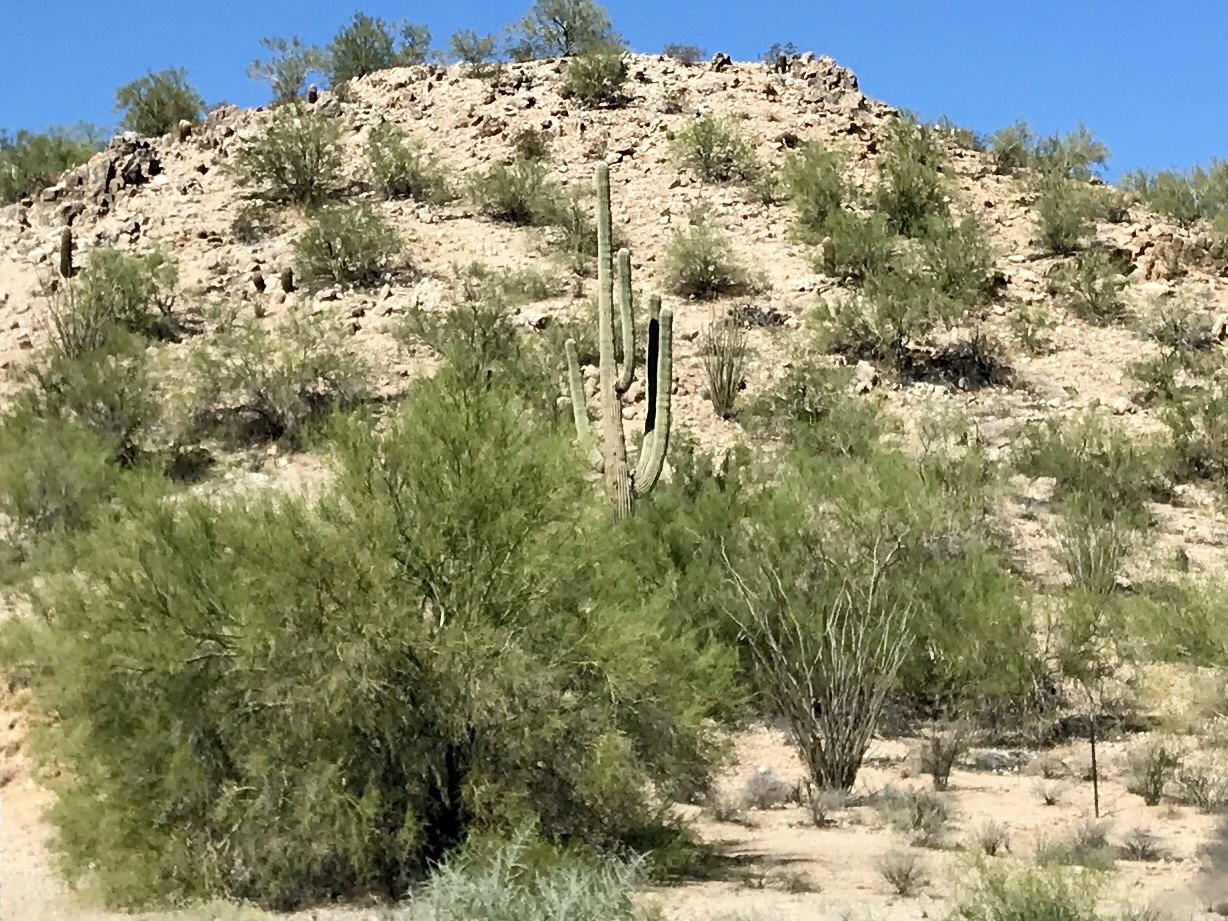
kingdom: Plantae
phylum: Tracheophyta
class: Magnoliopsida
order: Fabales
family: Fabaceae
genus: Parkinsonia
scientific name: Parkinsonia microphylla
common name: Yellow paloverde
